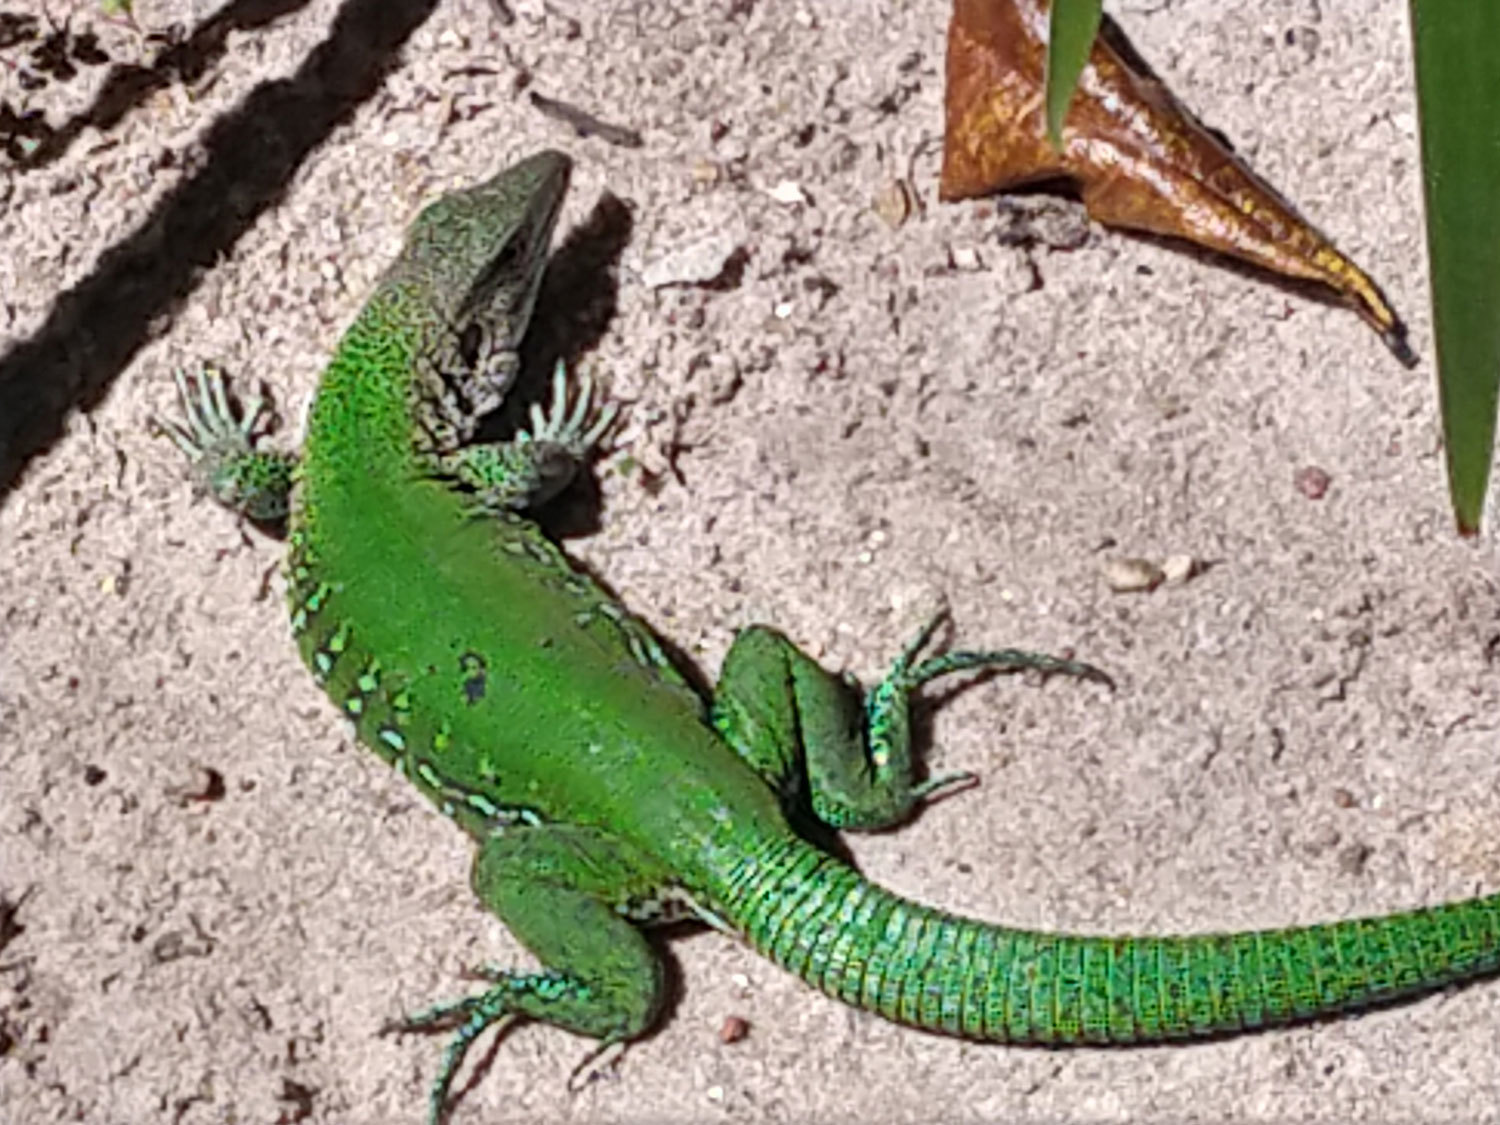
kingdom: Animalia
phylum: Chordata
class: Squamata
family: Teiidae
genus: Ameiva
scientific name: Ameiva ameiva
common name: Giant ameiva
